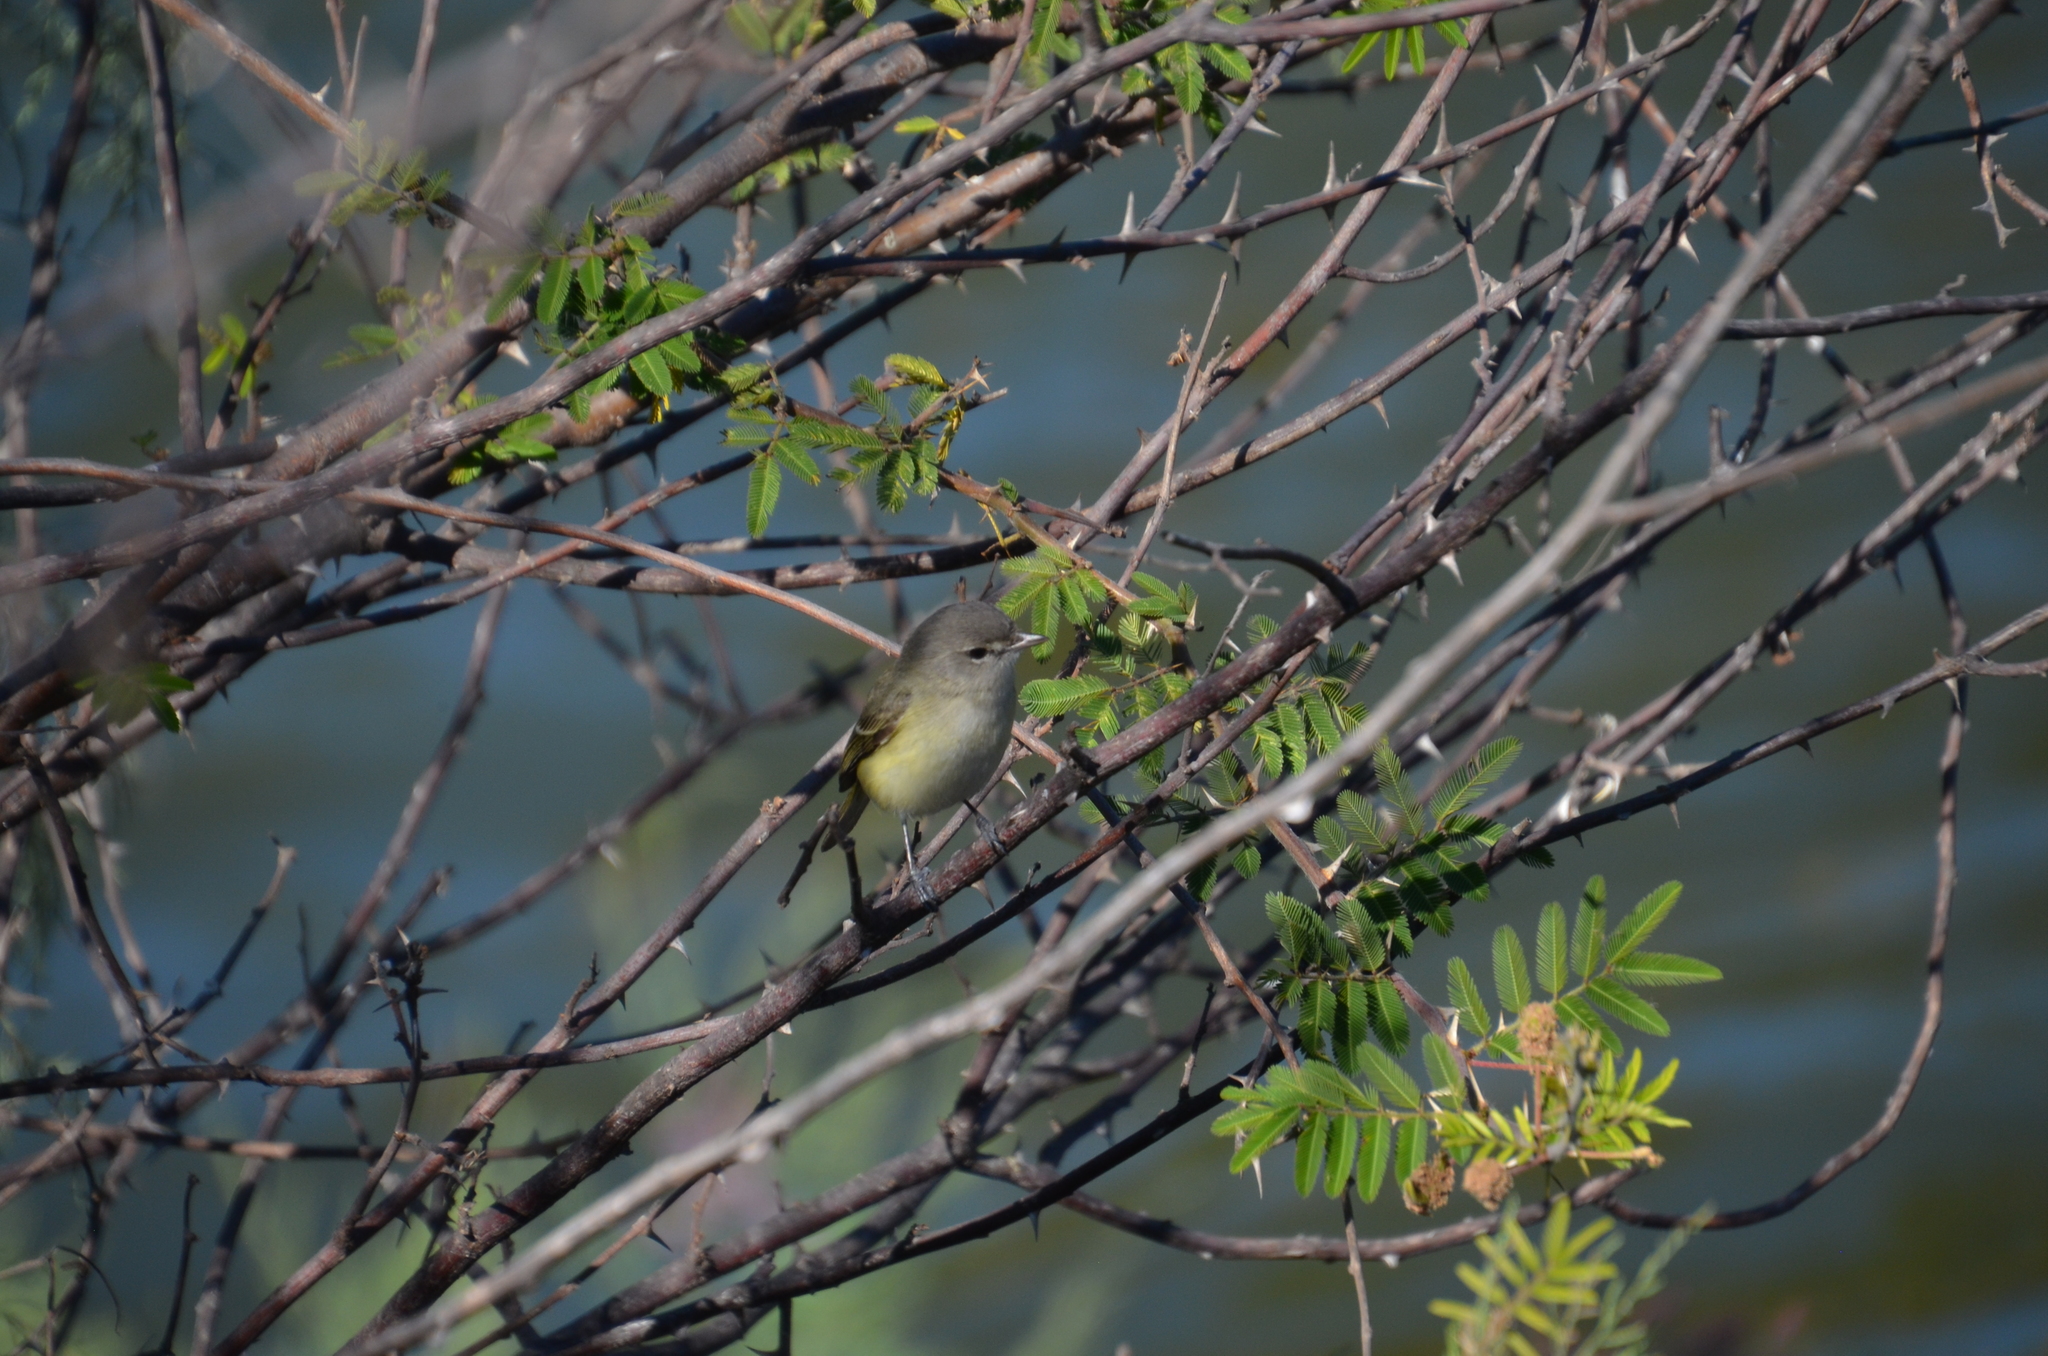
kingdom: Animalia
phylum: Chordata
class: Aves
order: Passeriformes
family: Vireonidae
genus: Vireo
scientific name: Vireo bellii
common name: Bell's vireo
